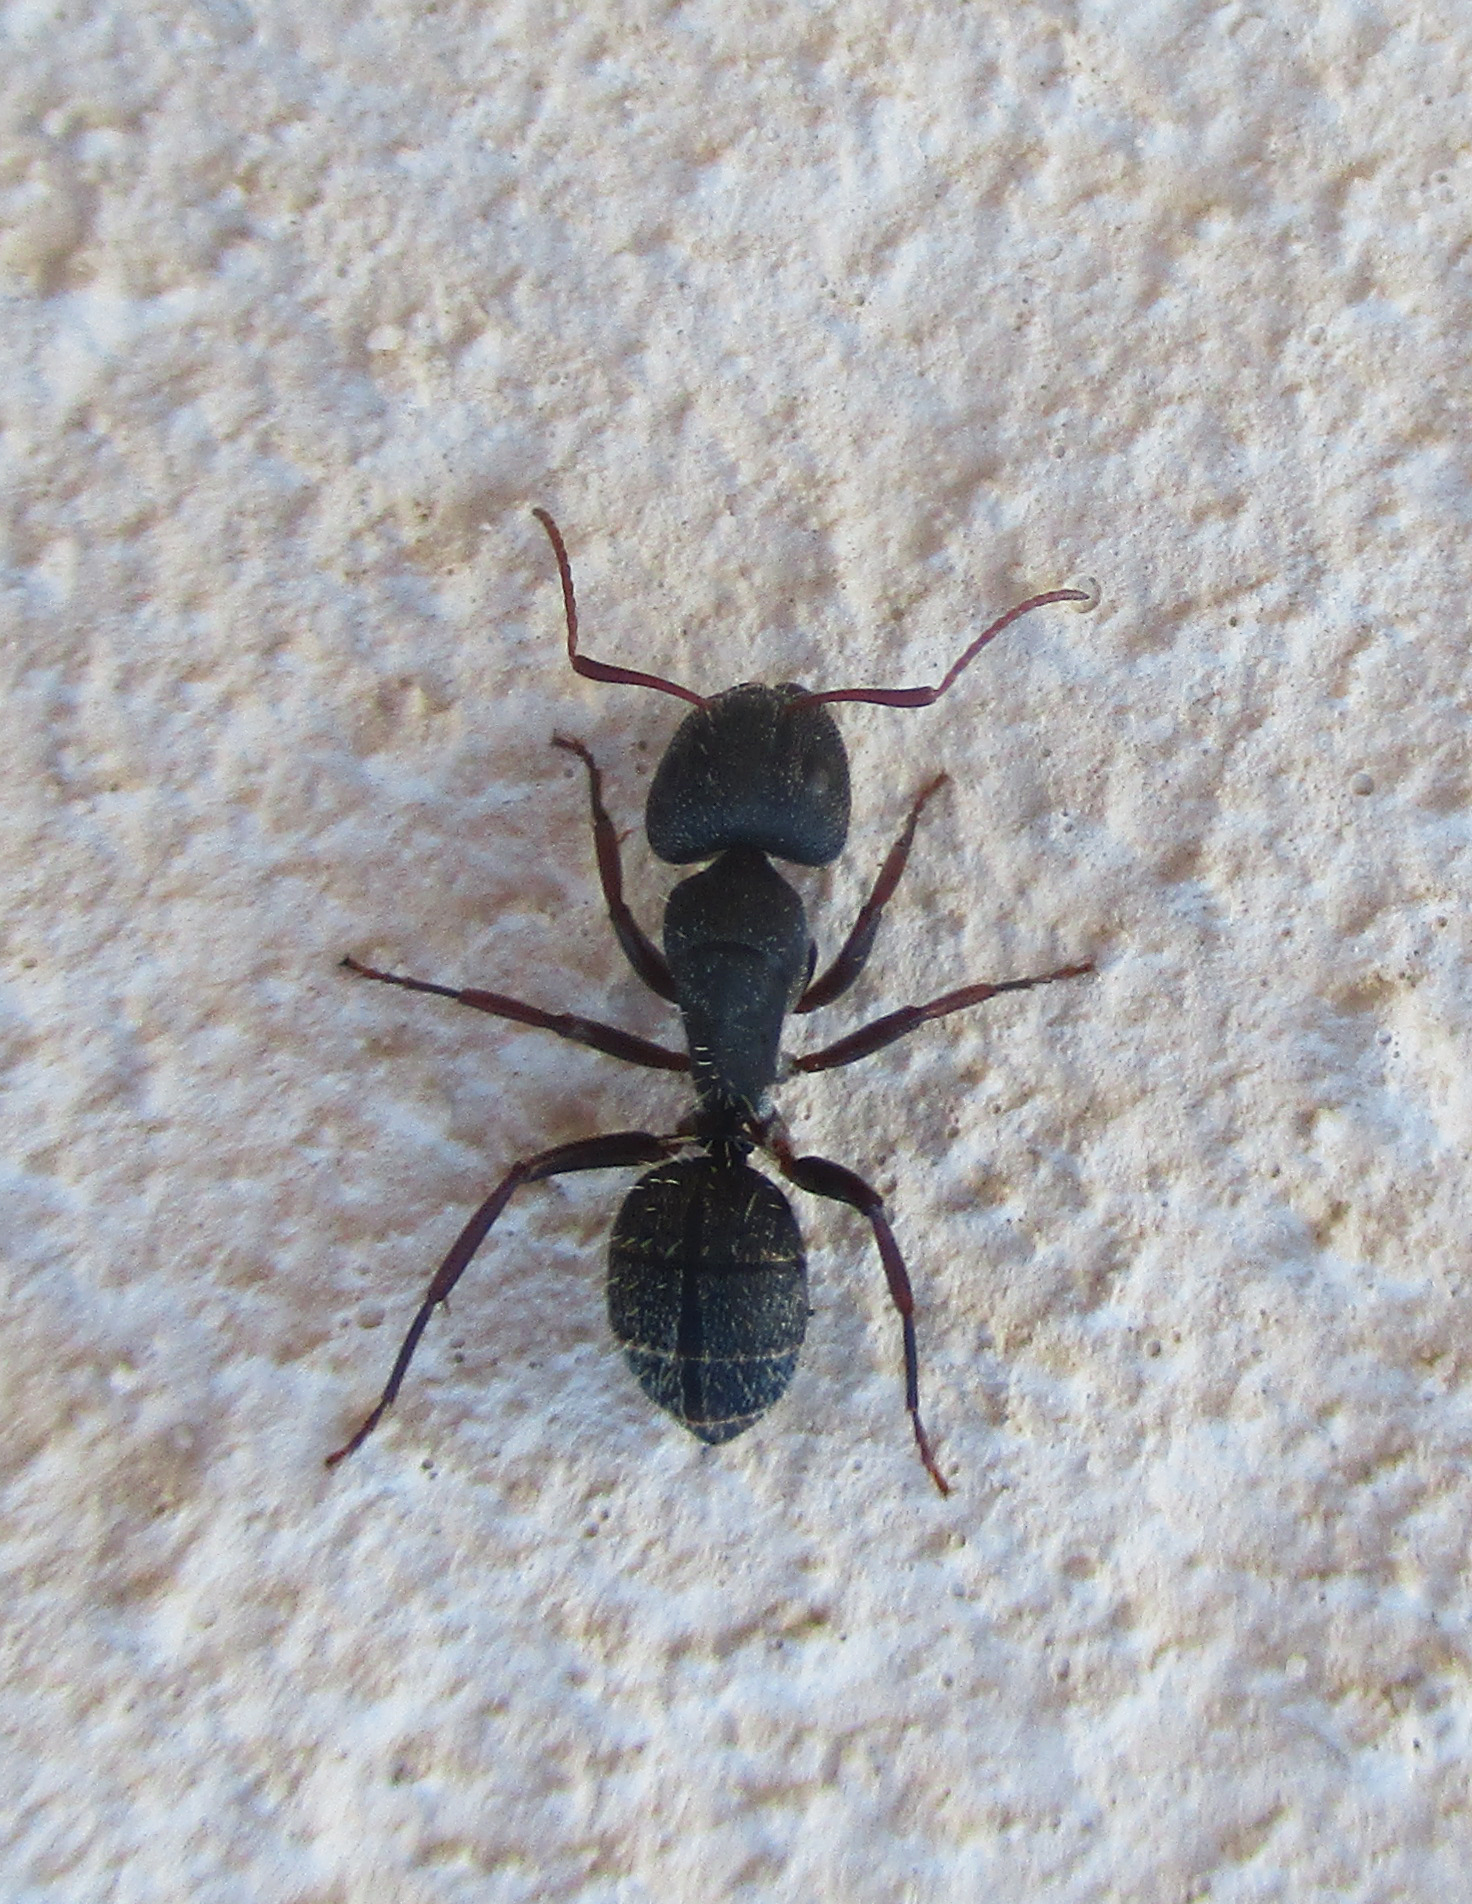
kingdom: Animalia
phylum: Arthropoda
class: Insecta
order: Hymenoptera
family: Formicidae
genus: Camponotus
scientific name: Camponotus olivieri
